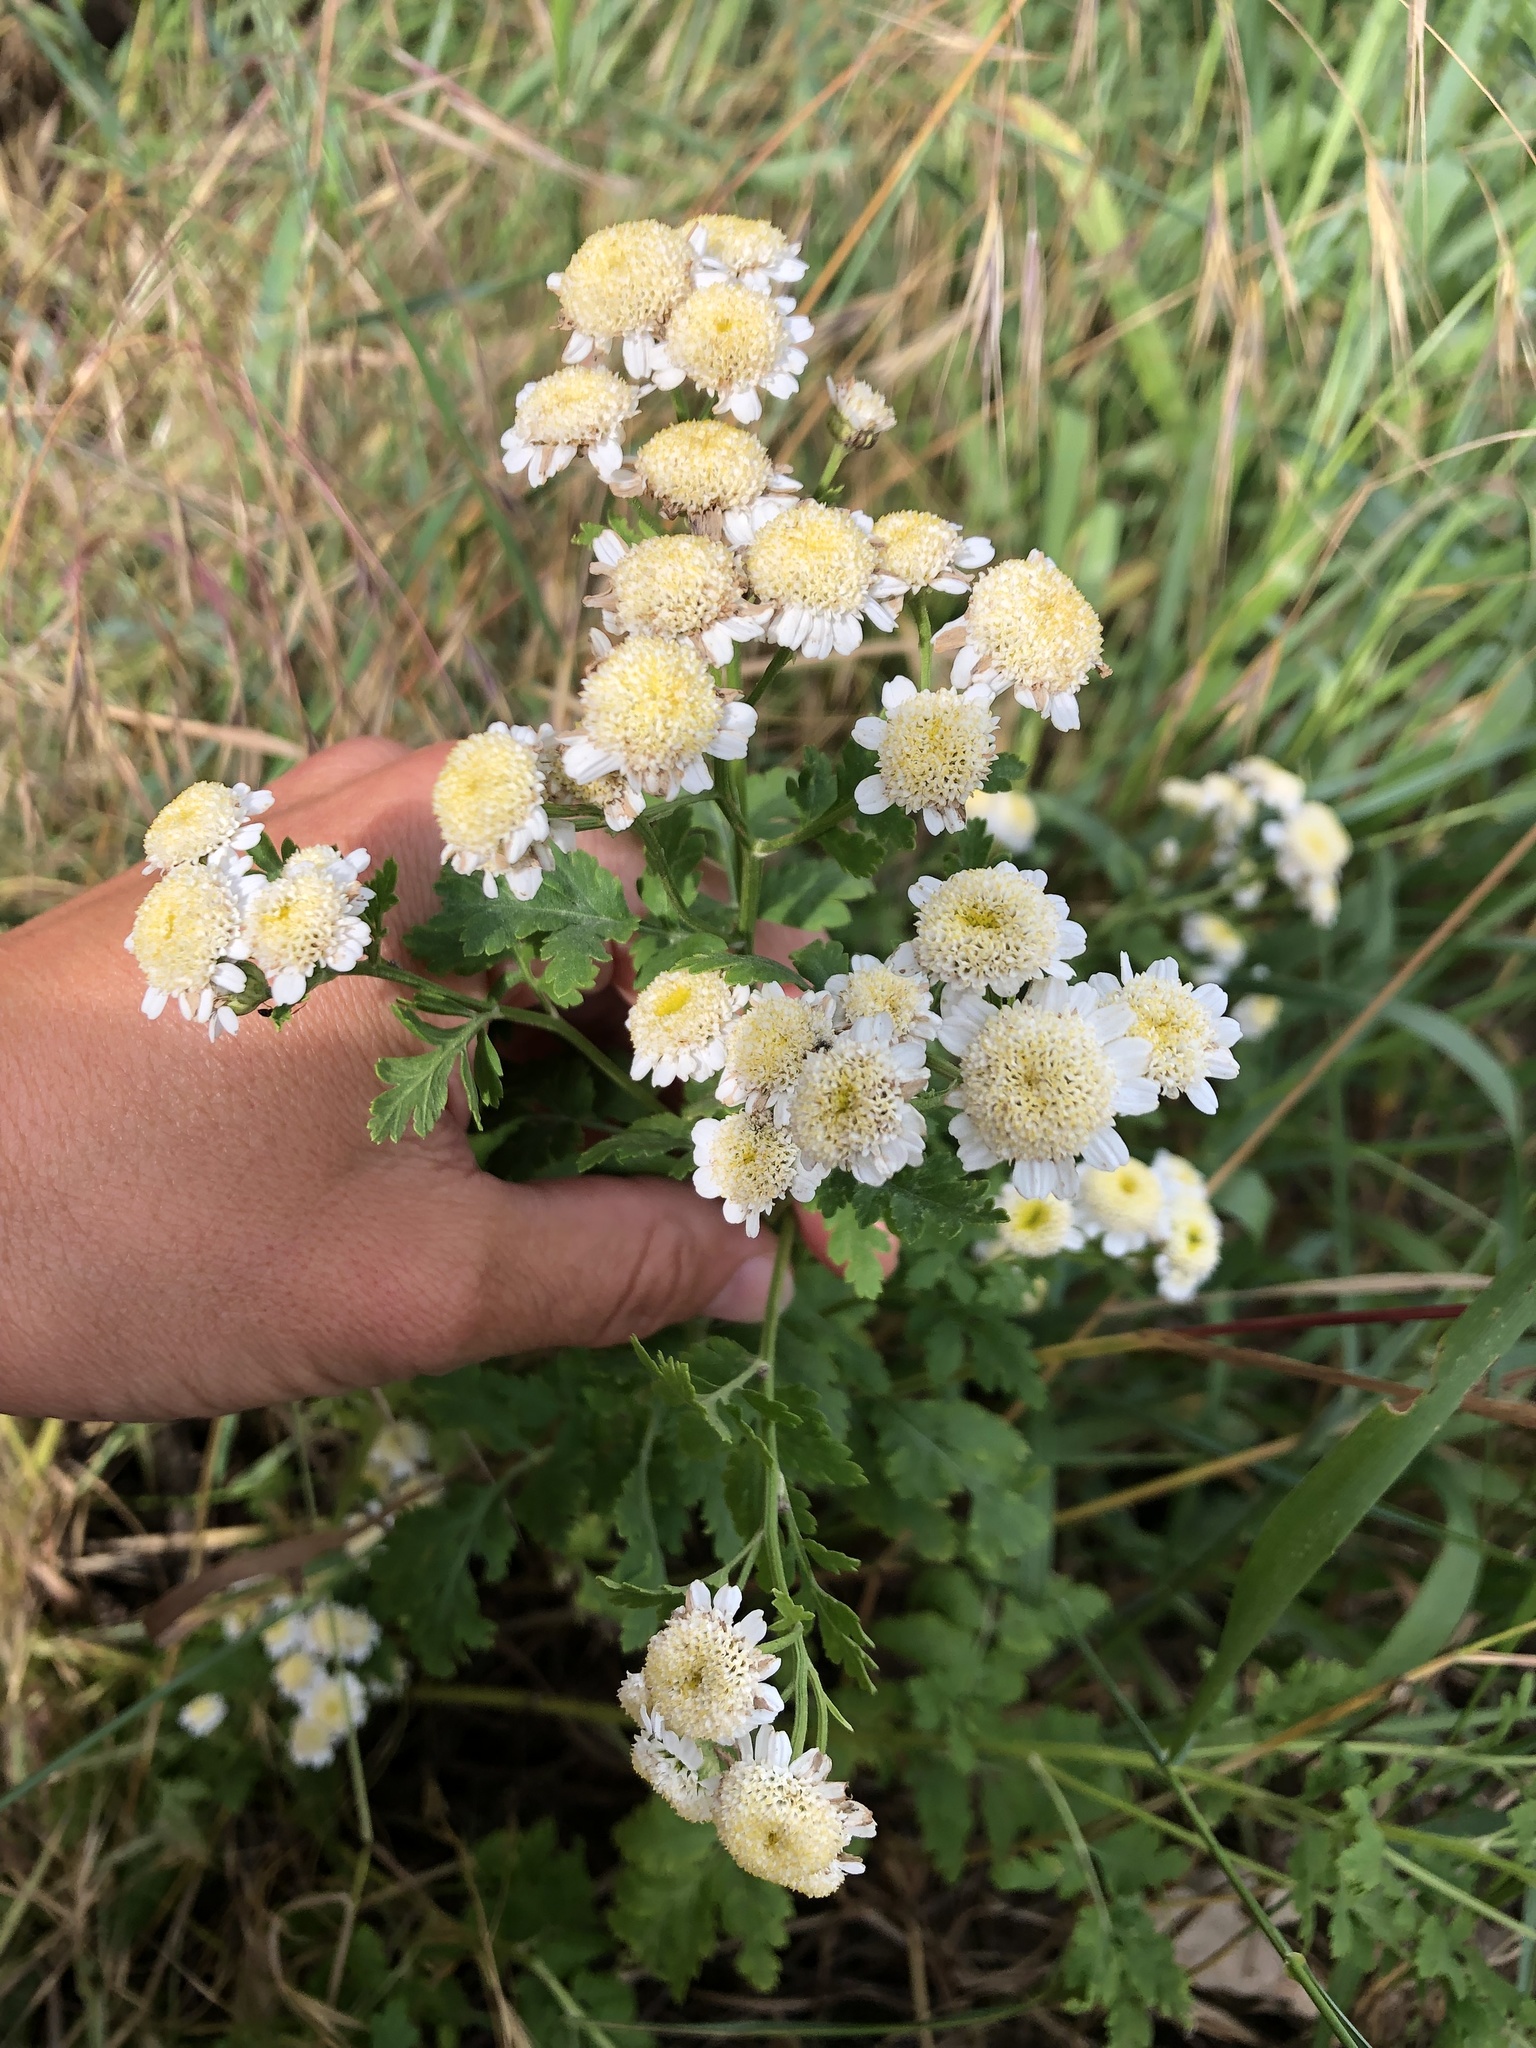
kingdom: Plantae
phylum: Tracheophyta
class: Magnoliopsida
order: Asterales
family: Asteraceae
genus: Tanacetum
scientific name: Tanacetum parthenium
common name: Feverfew
